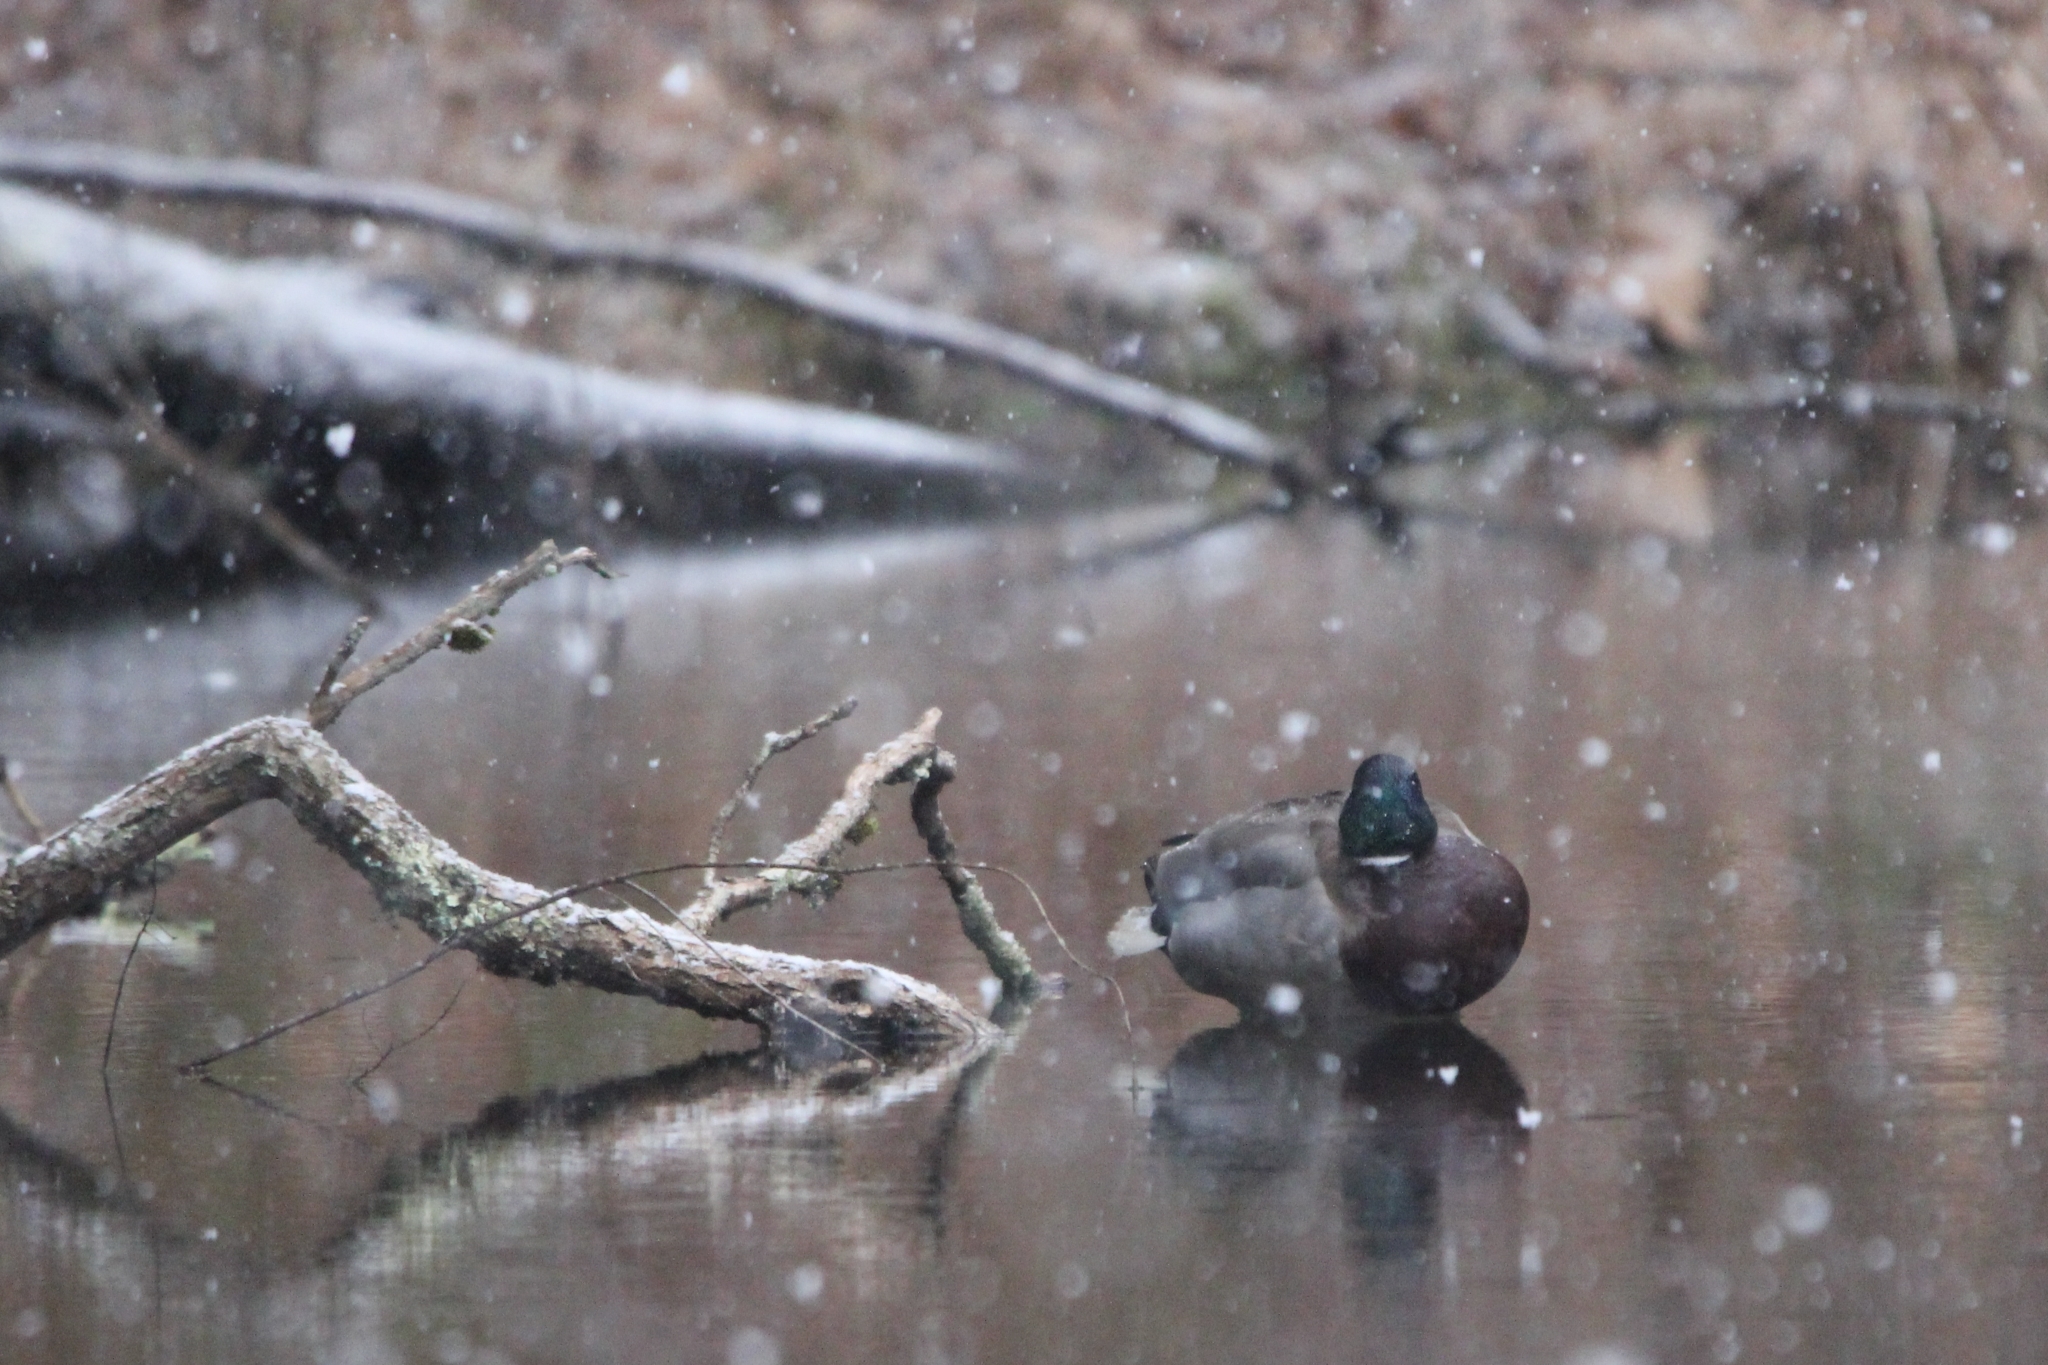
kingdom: Animalia
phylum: Chordata
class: Aves
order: Anseriformes
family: Anatidae
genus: Anas
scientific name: Anas platyrhynchos
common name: Mallard
